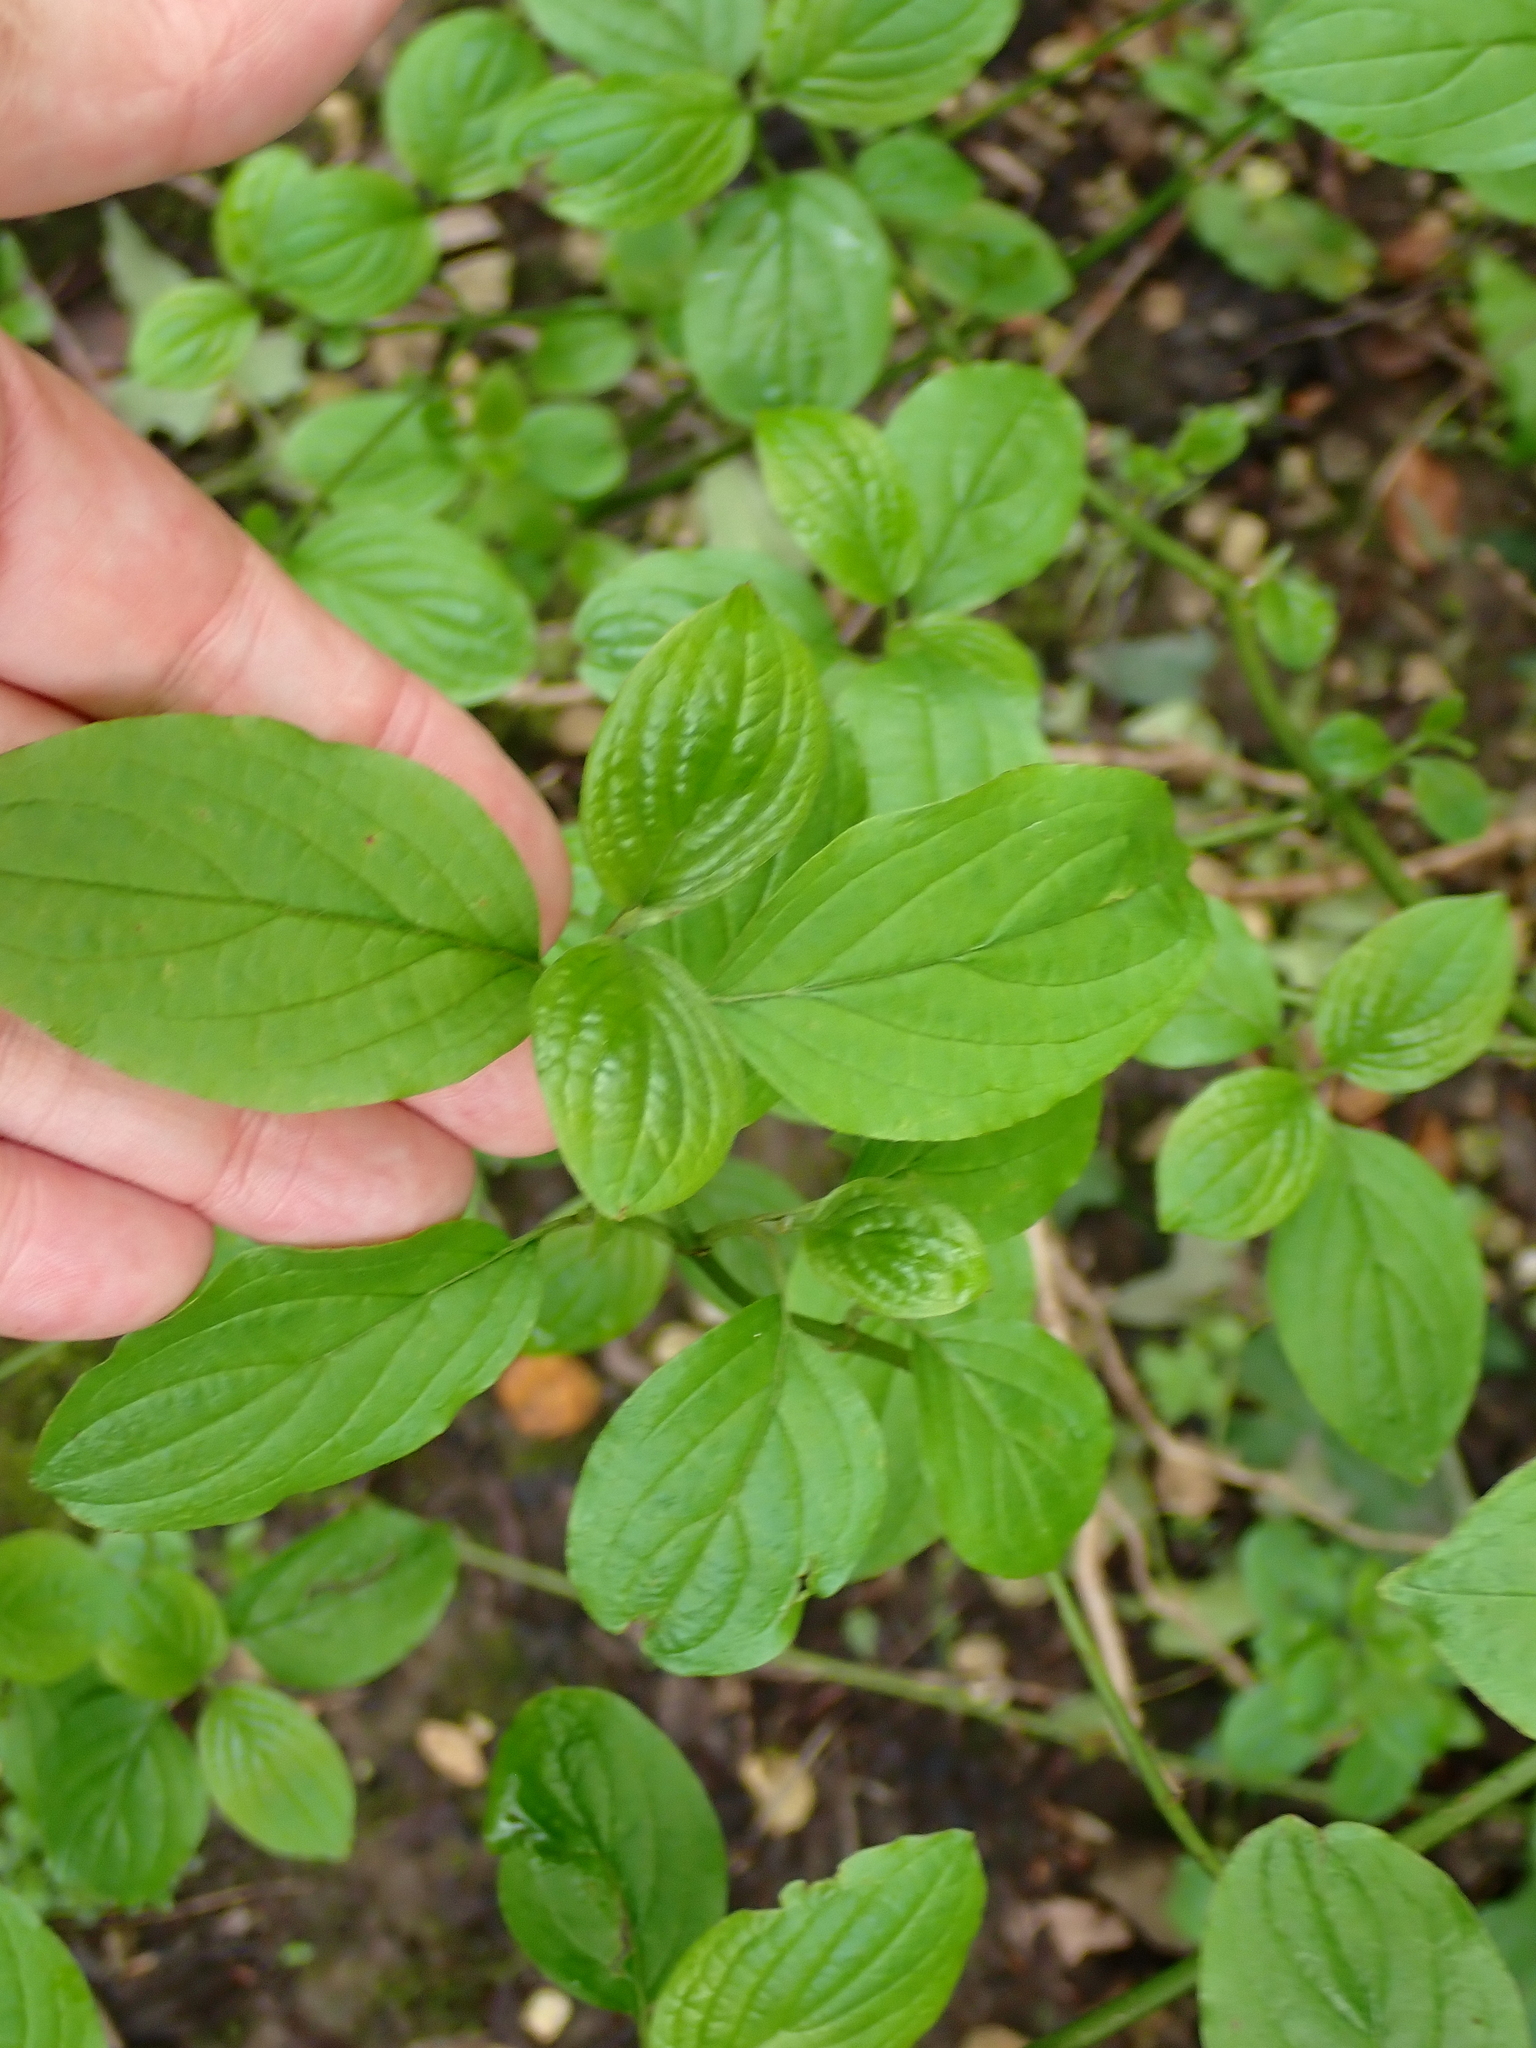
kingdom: Plantae
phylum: Tracheophyta
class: Magnoliopsida
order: Cornales
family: Cornaceae
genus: Cornus
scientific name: Cornus sanguinea
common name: Dogwood
